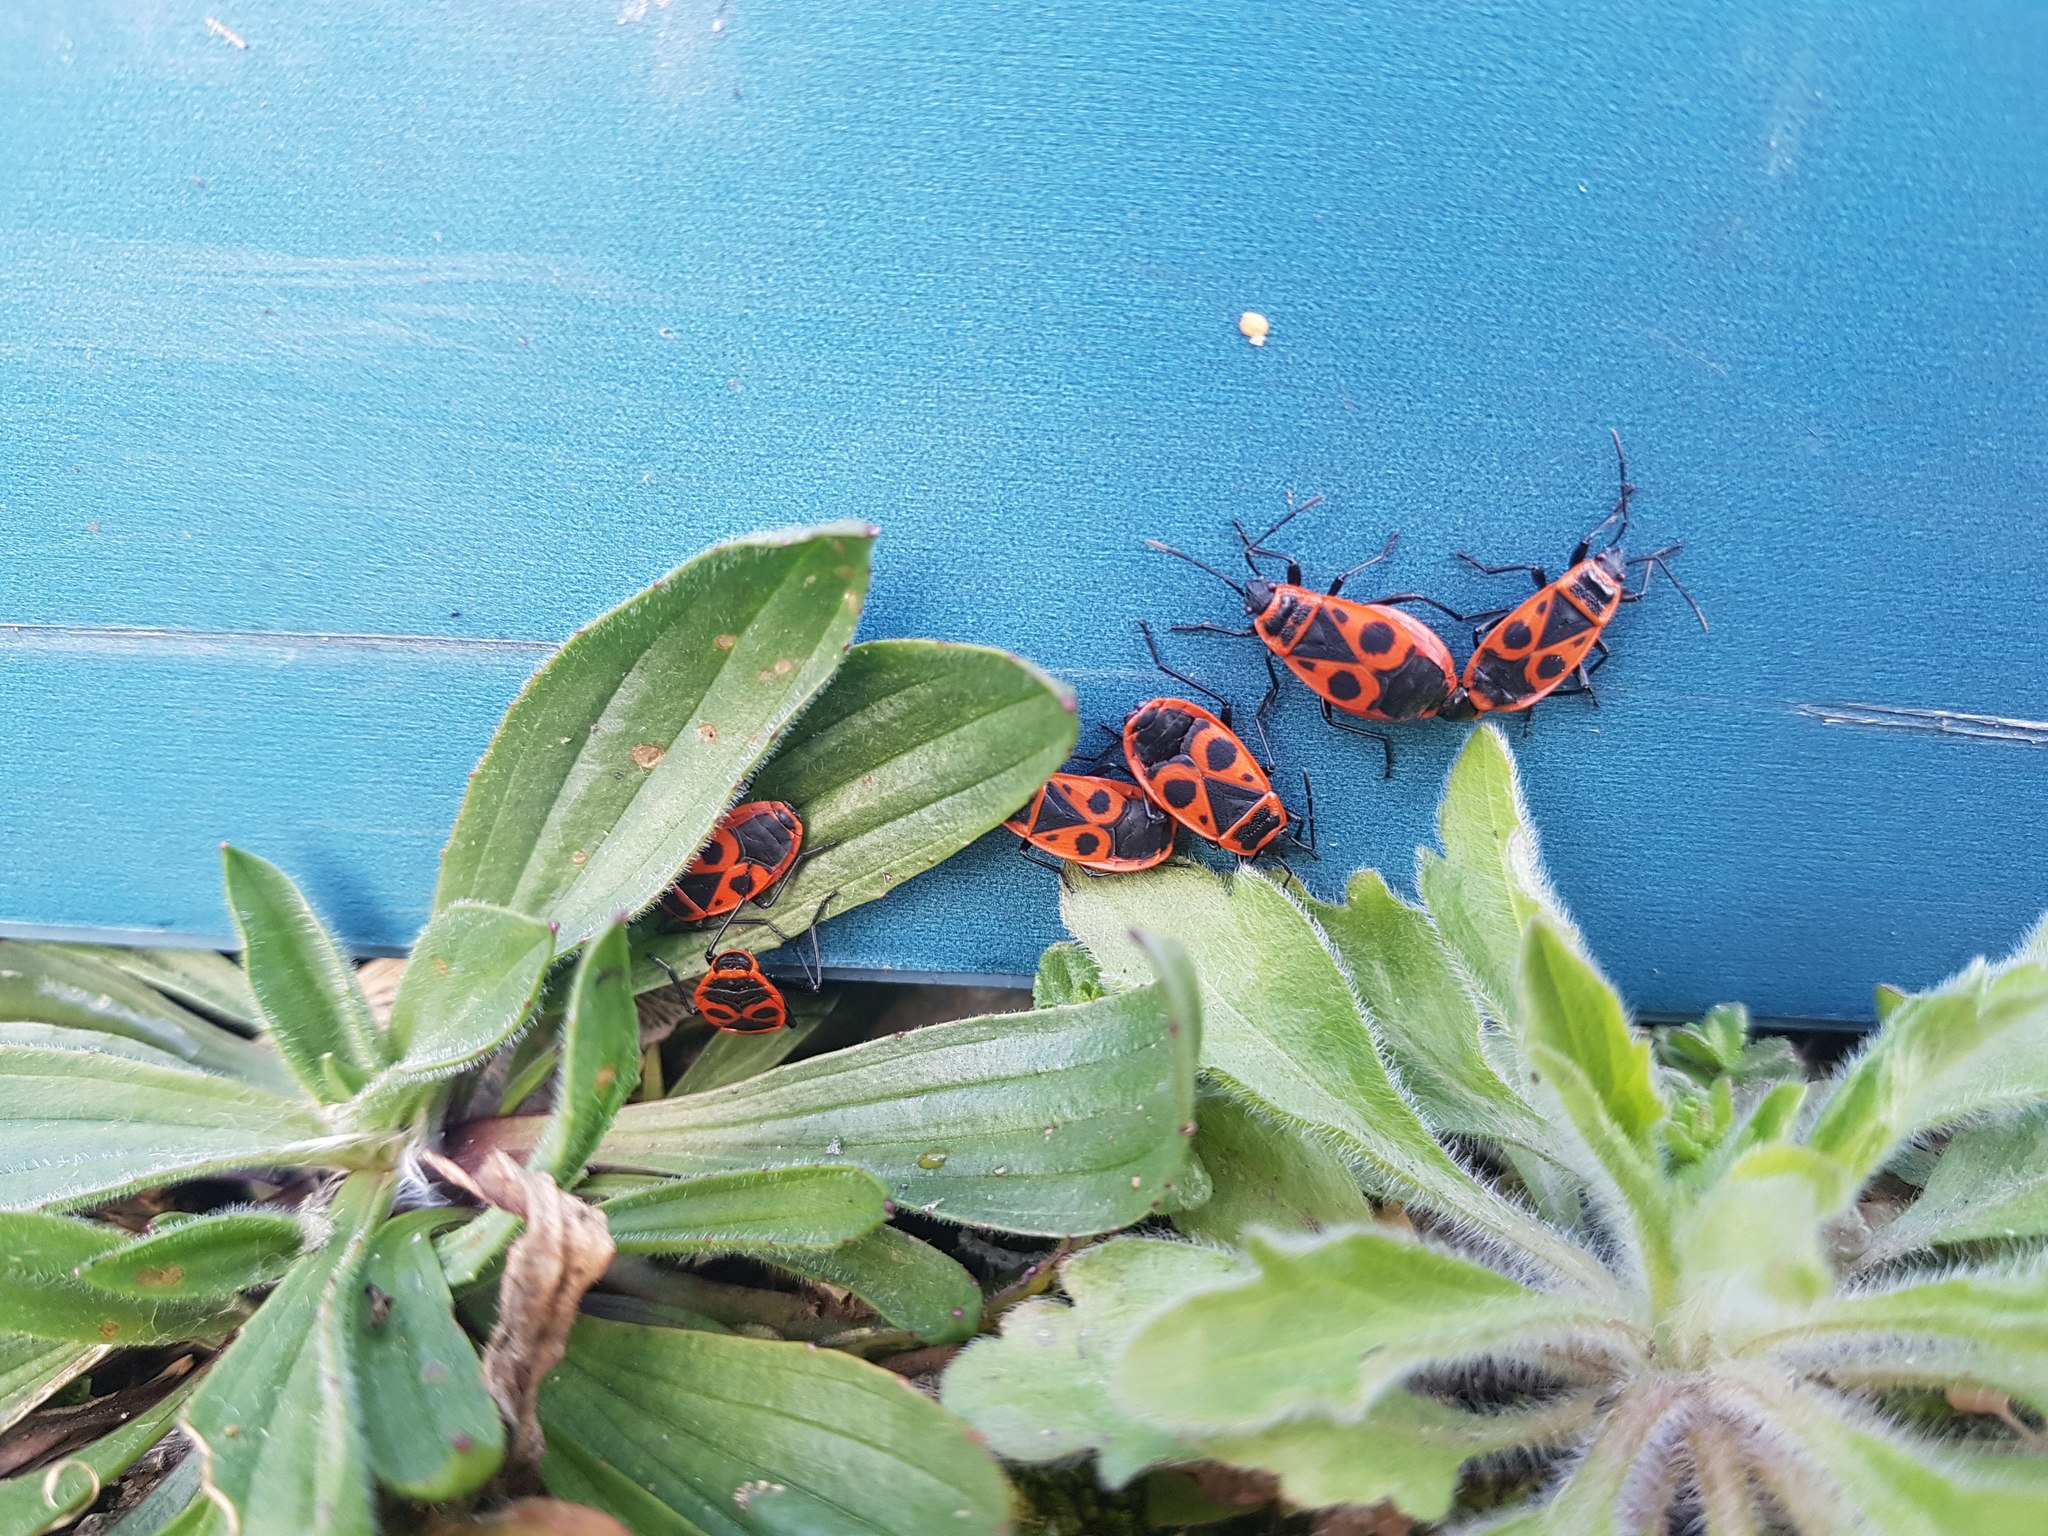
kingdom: Animalia
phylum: Arthropoda
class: Insecta
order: Hemiptera
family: Pyrrhocoridae
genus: Pyrrhocoris
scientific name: Pyrrhocoris apterus
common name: Firebug
